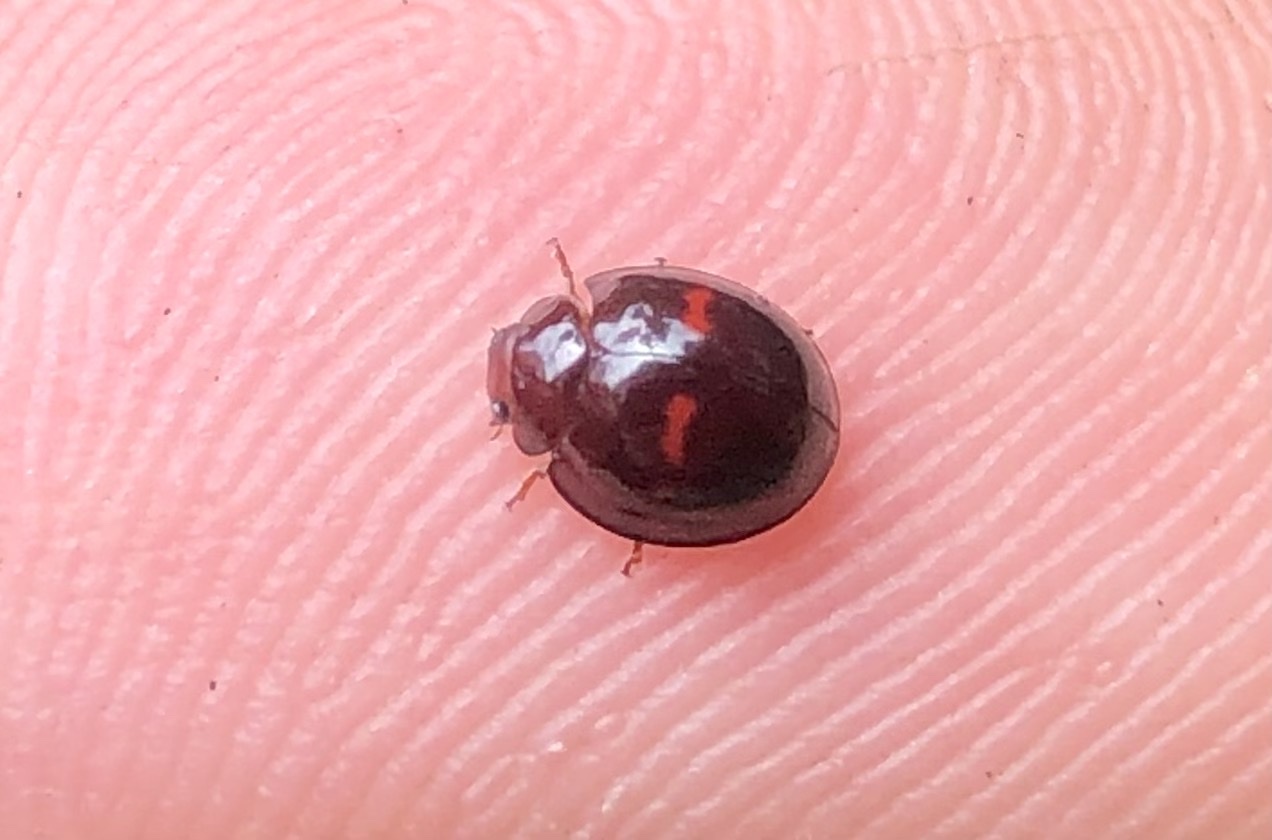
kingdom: Animalia
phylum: Arthropoda
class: Insecta
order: Coleoptera
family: Coccinellidae
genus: Chilocorus
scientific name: Chilocorus bipustulatus
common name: Heather ladybird
